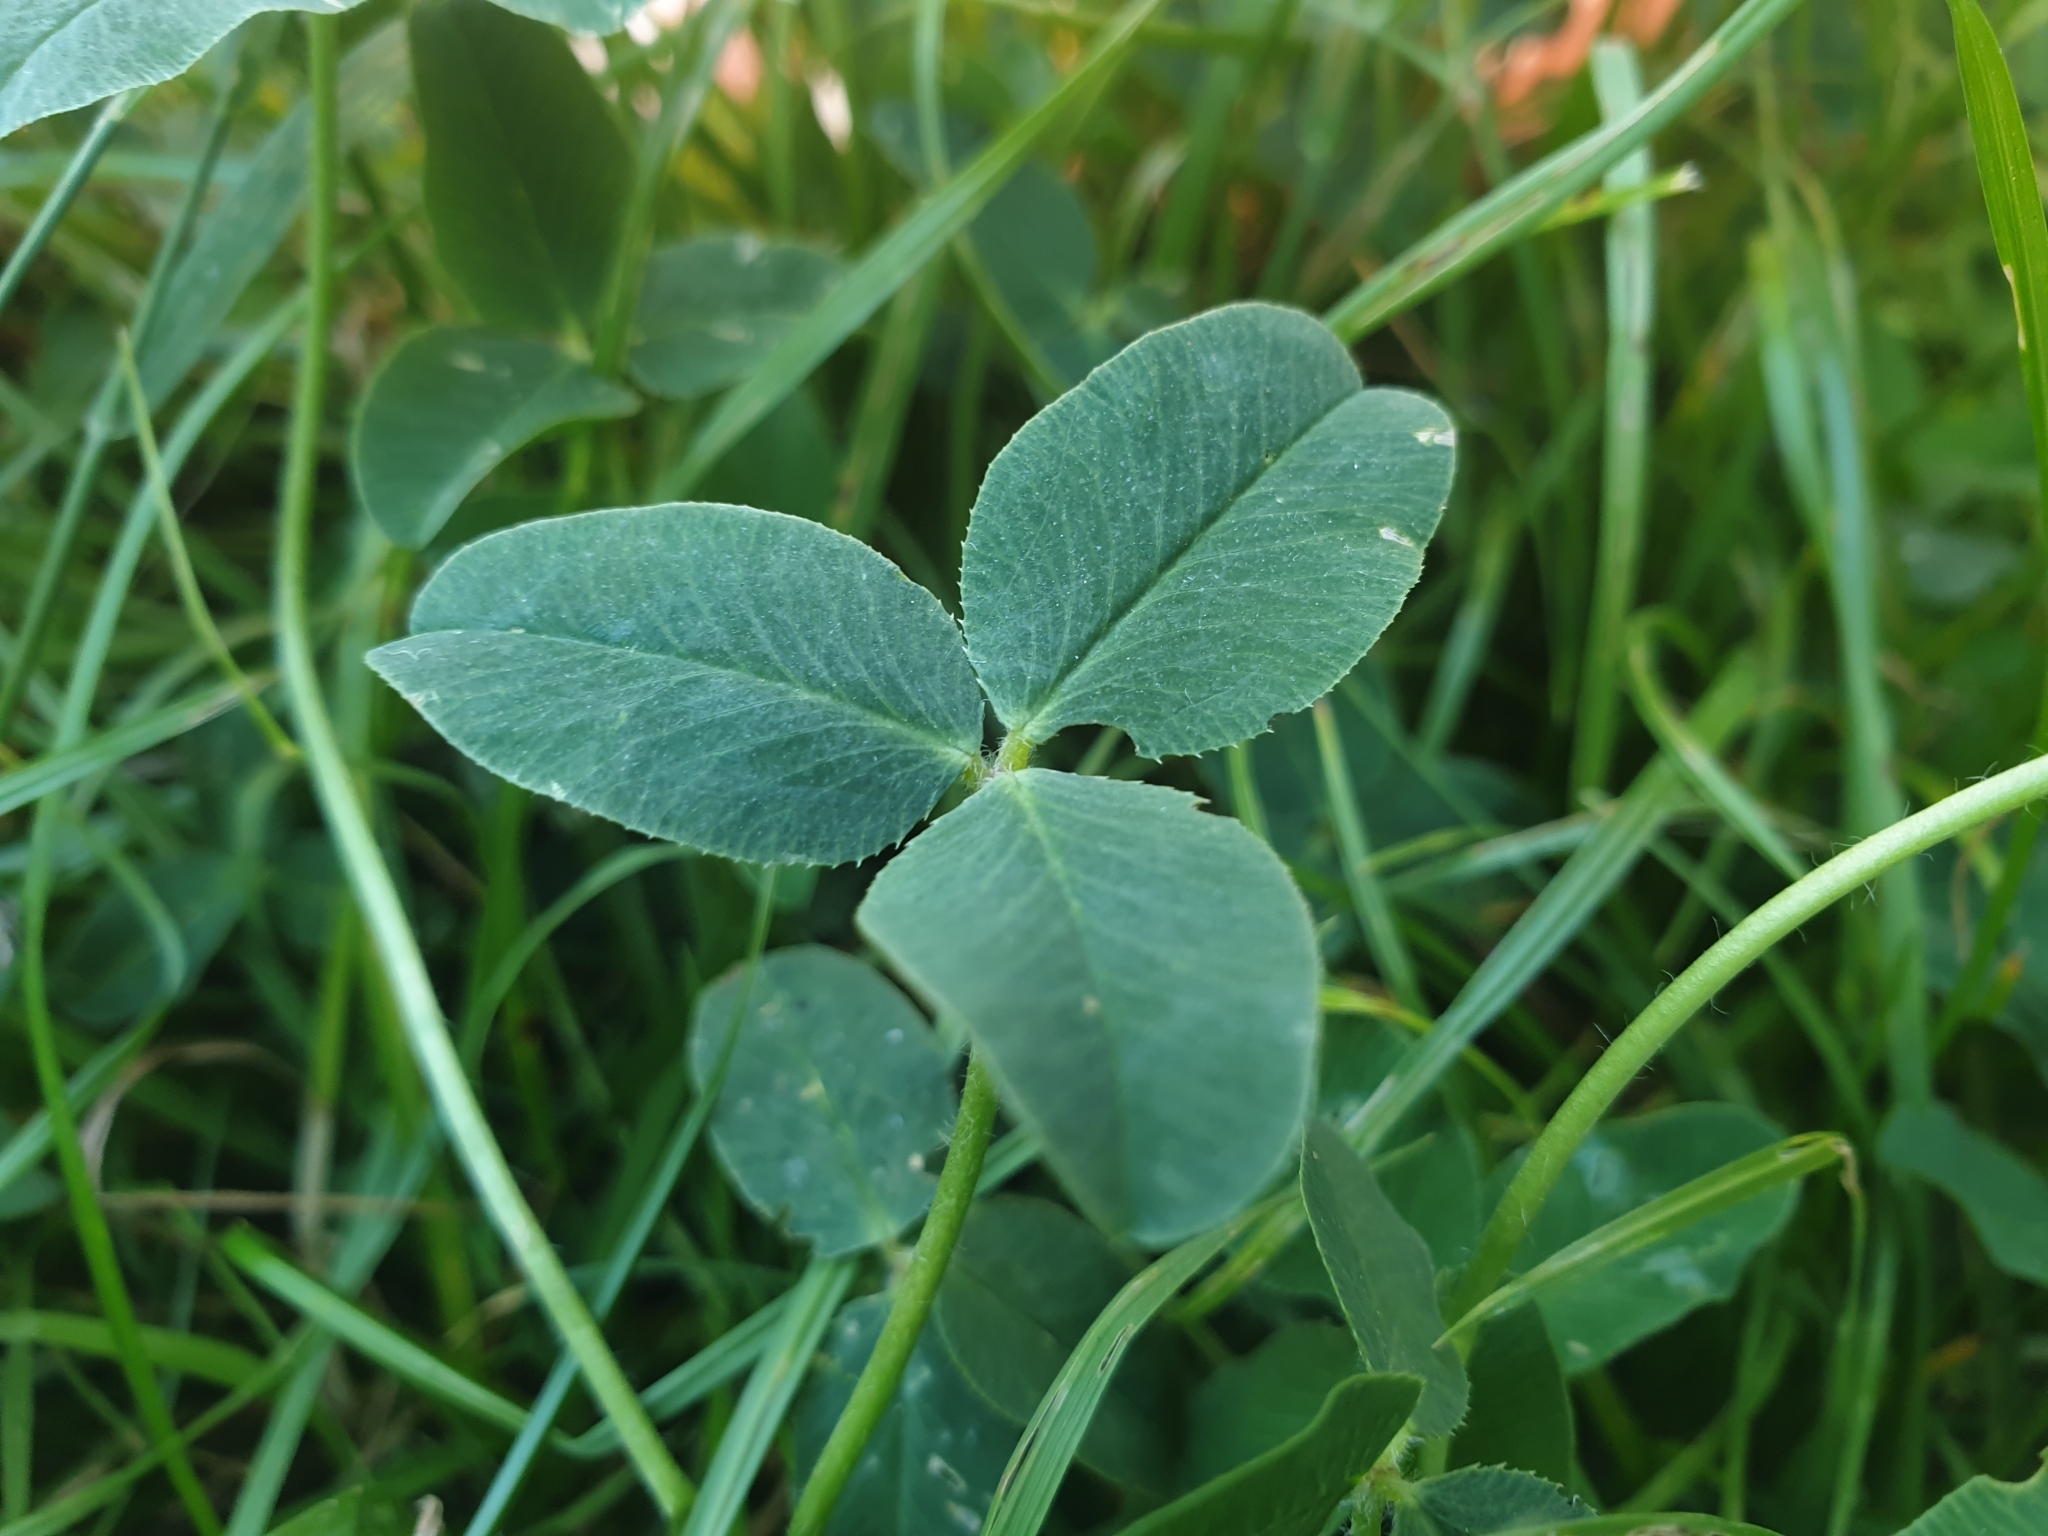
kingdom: Plantae
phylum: Tracheophyta
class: Magnoliopsida
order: Fabales
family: Fabaceae
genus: Trifolium
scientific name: Trifolium fragiferum
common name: Strawberry clover
